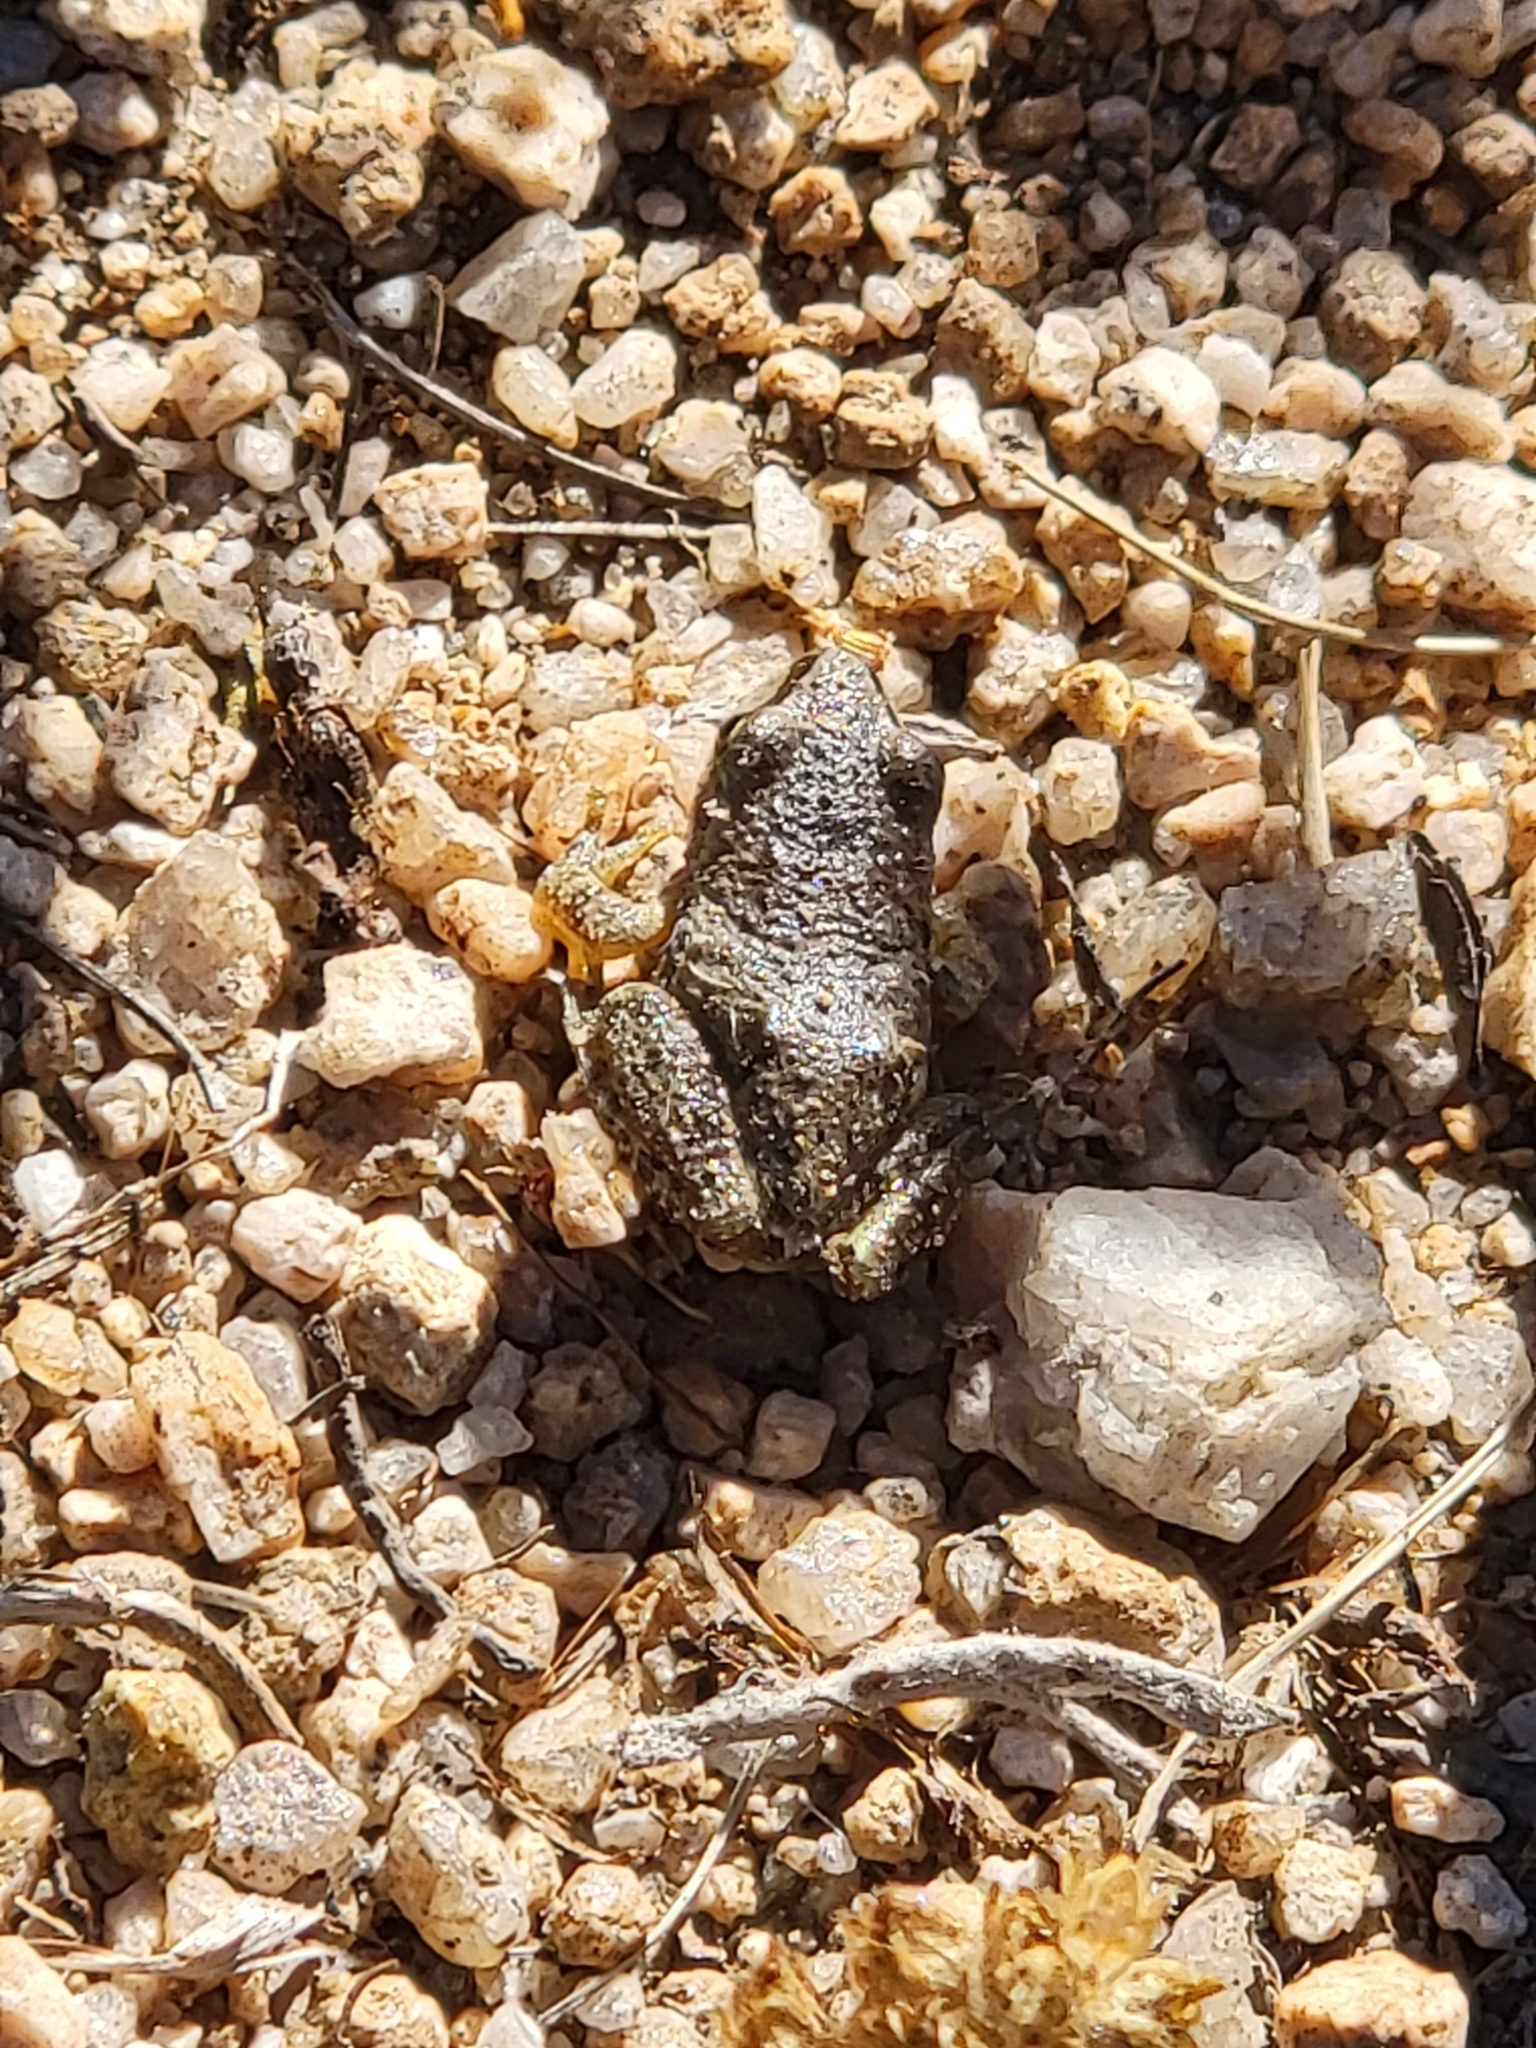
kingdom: Animalia
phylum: Chordata
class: Amphibia
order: Anura
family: Hylidae
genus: Pseudacris
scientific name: Pseudacris regilla
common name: Pacific chorus frog
